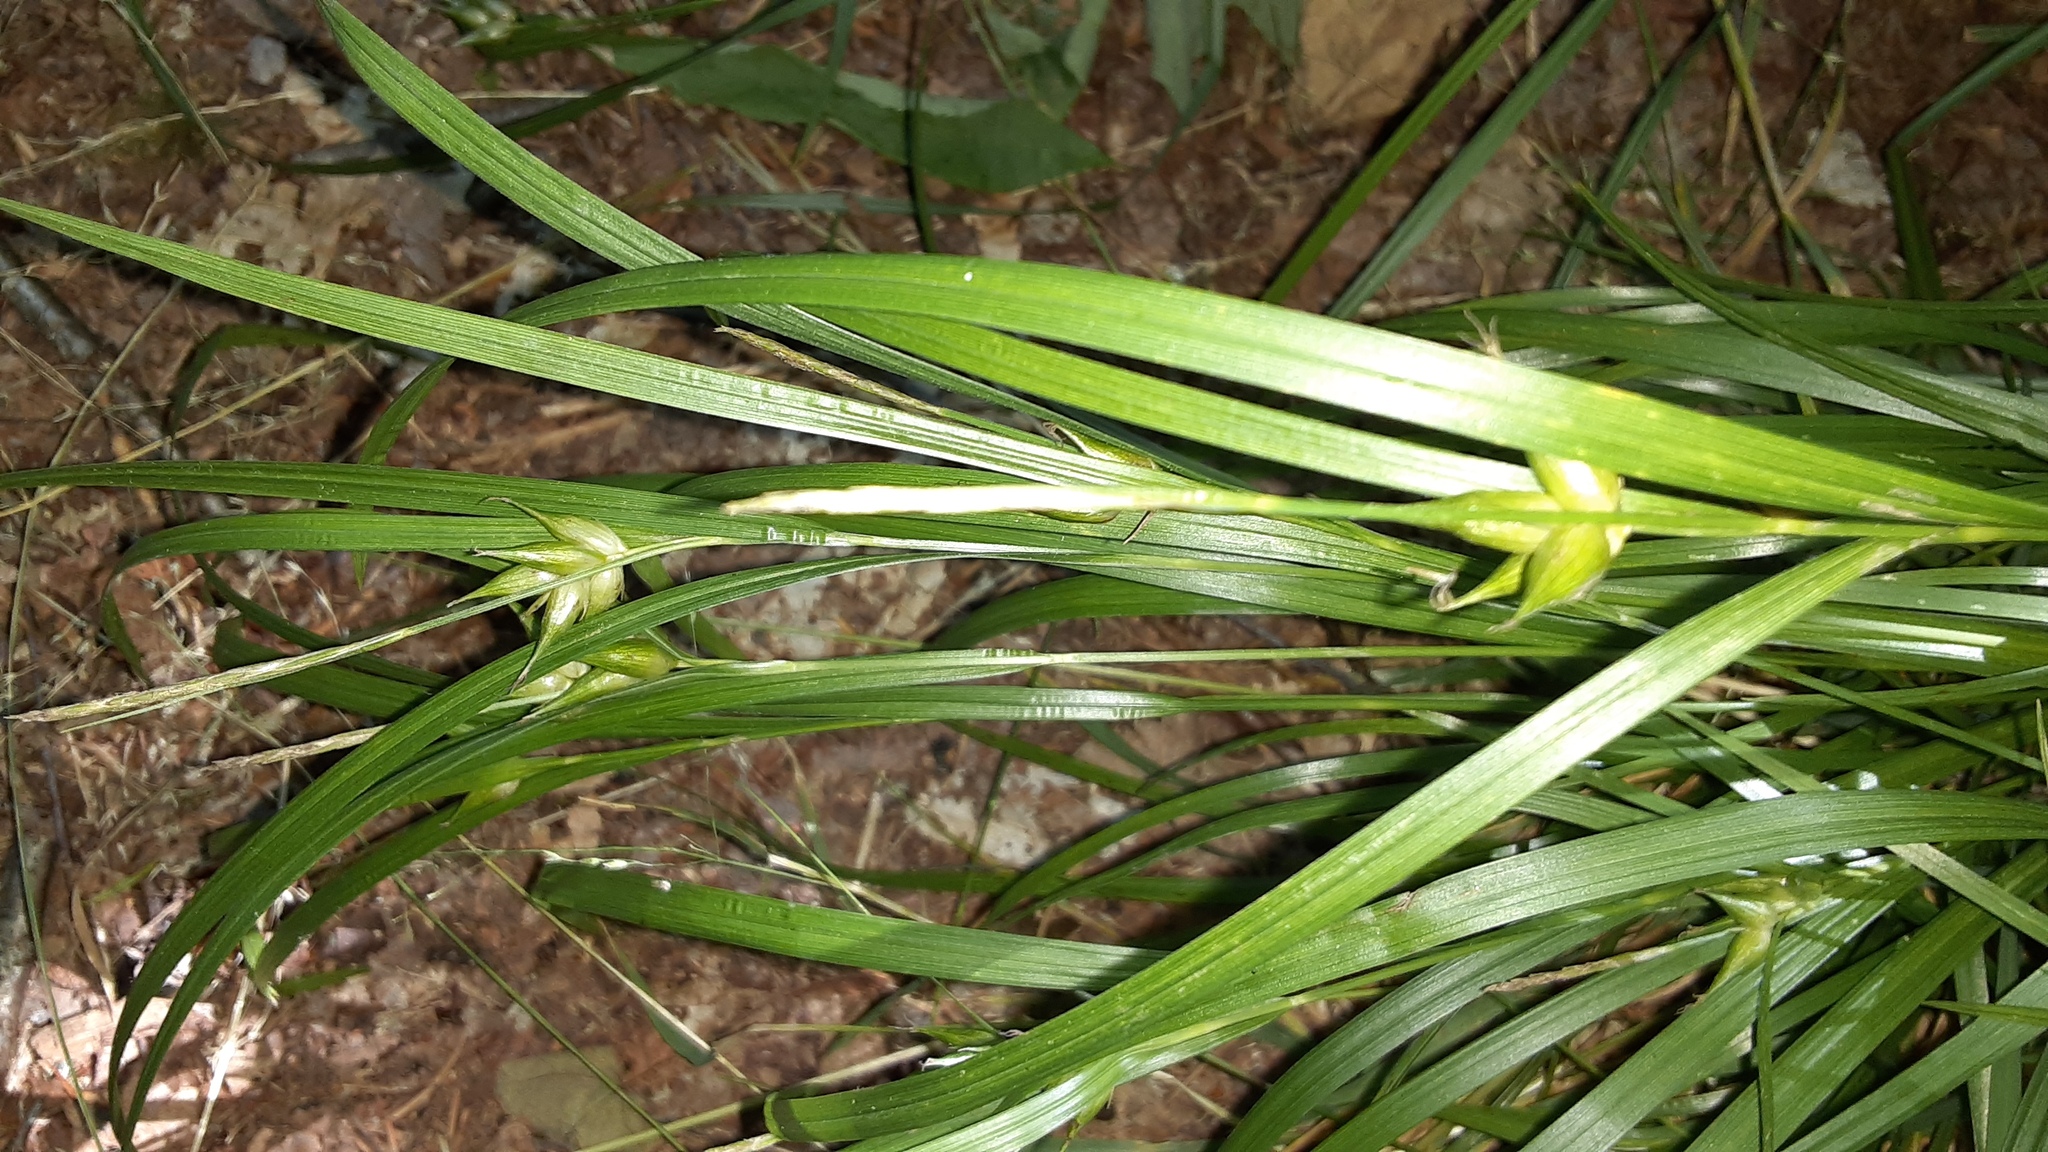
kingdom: Plantae
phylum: Tracheophyta
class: Liliopsida
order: Poales
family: Cyperaceae
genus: Carex
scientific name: Carex intumescens
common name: Greater bladder sedge
